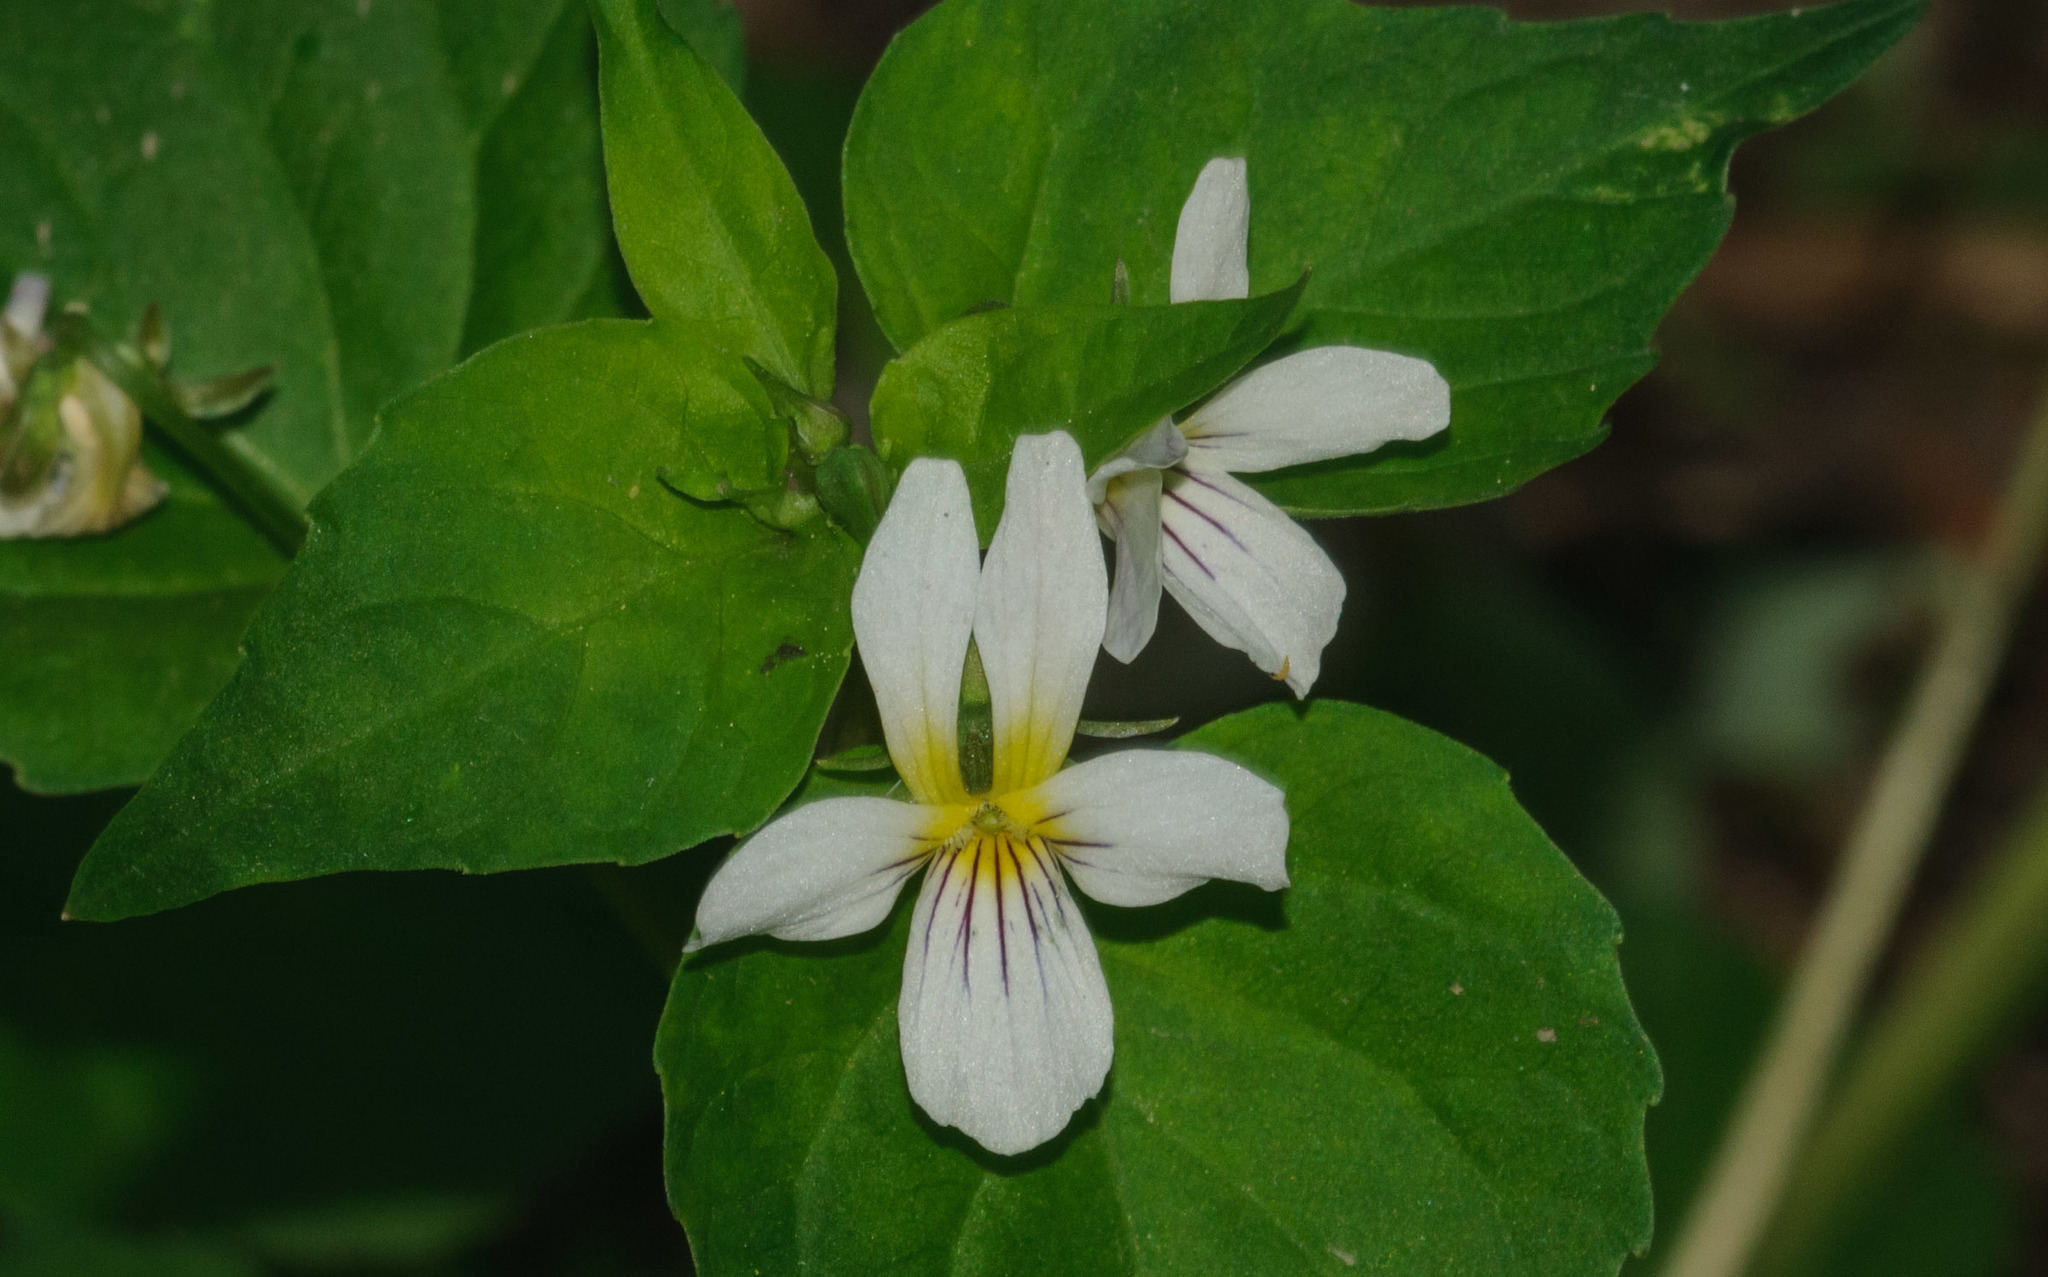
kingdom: Plantae
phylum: Tracheophyta
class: Magnoliopsida
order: Malpighiales
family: Violaceae
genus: Viola
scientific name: Viola canadensis
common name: Canada violet
